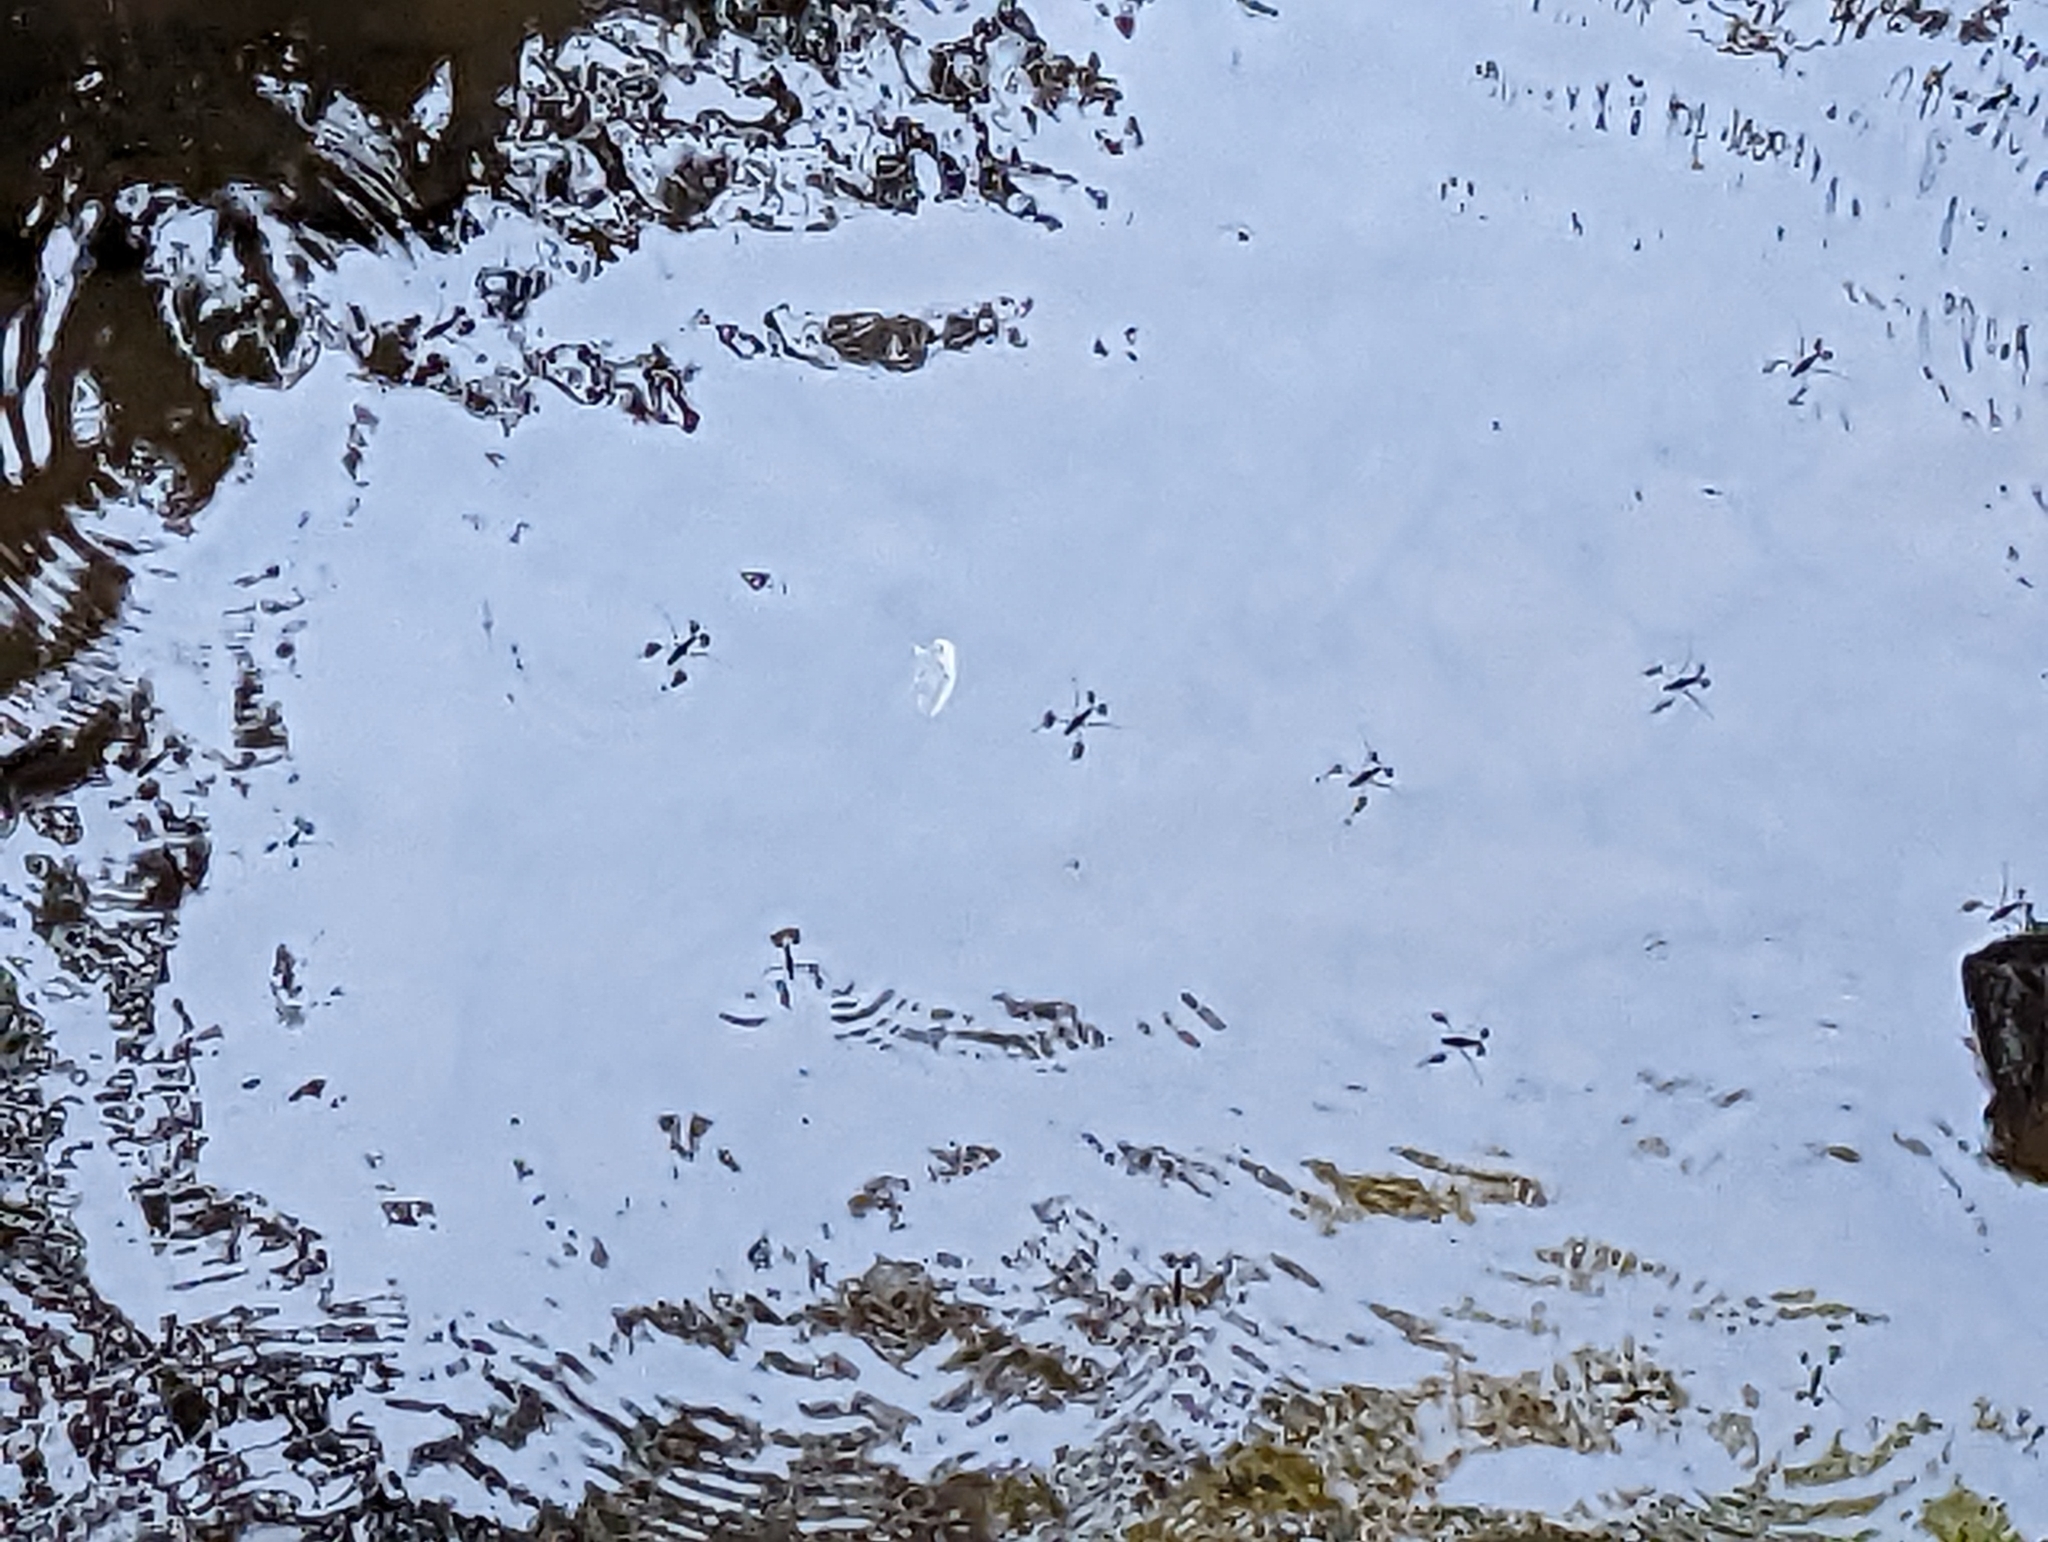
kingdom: Animalia
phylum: Arthropoda
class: Insecta
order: Hemiptera
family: Gerridae
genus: Aquarius
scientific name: Aquarius remigis
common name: Common water strider
